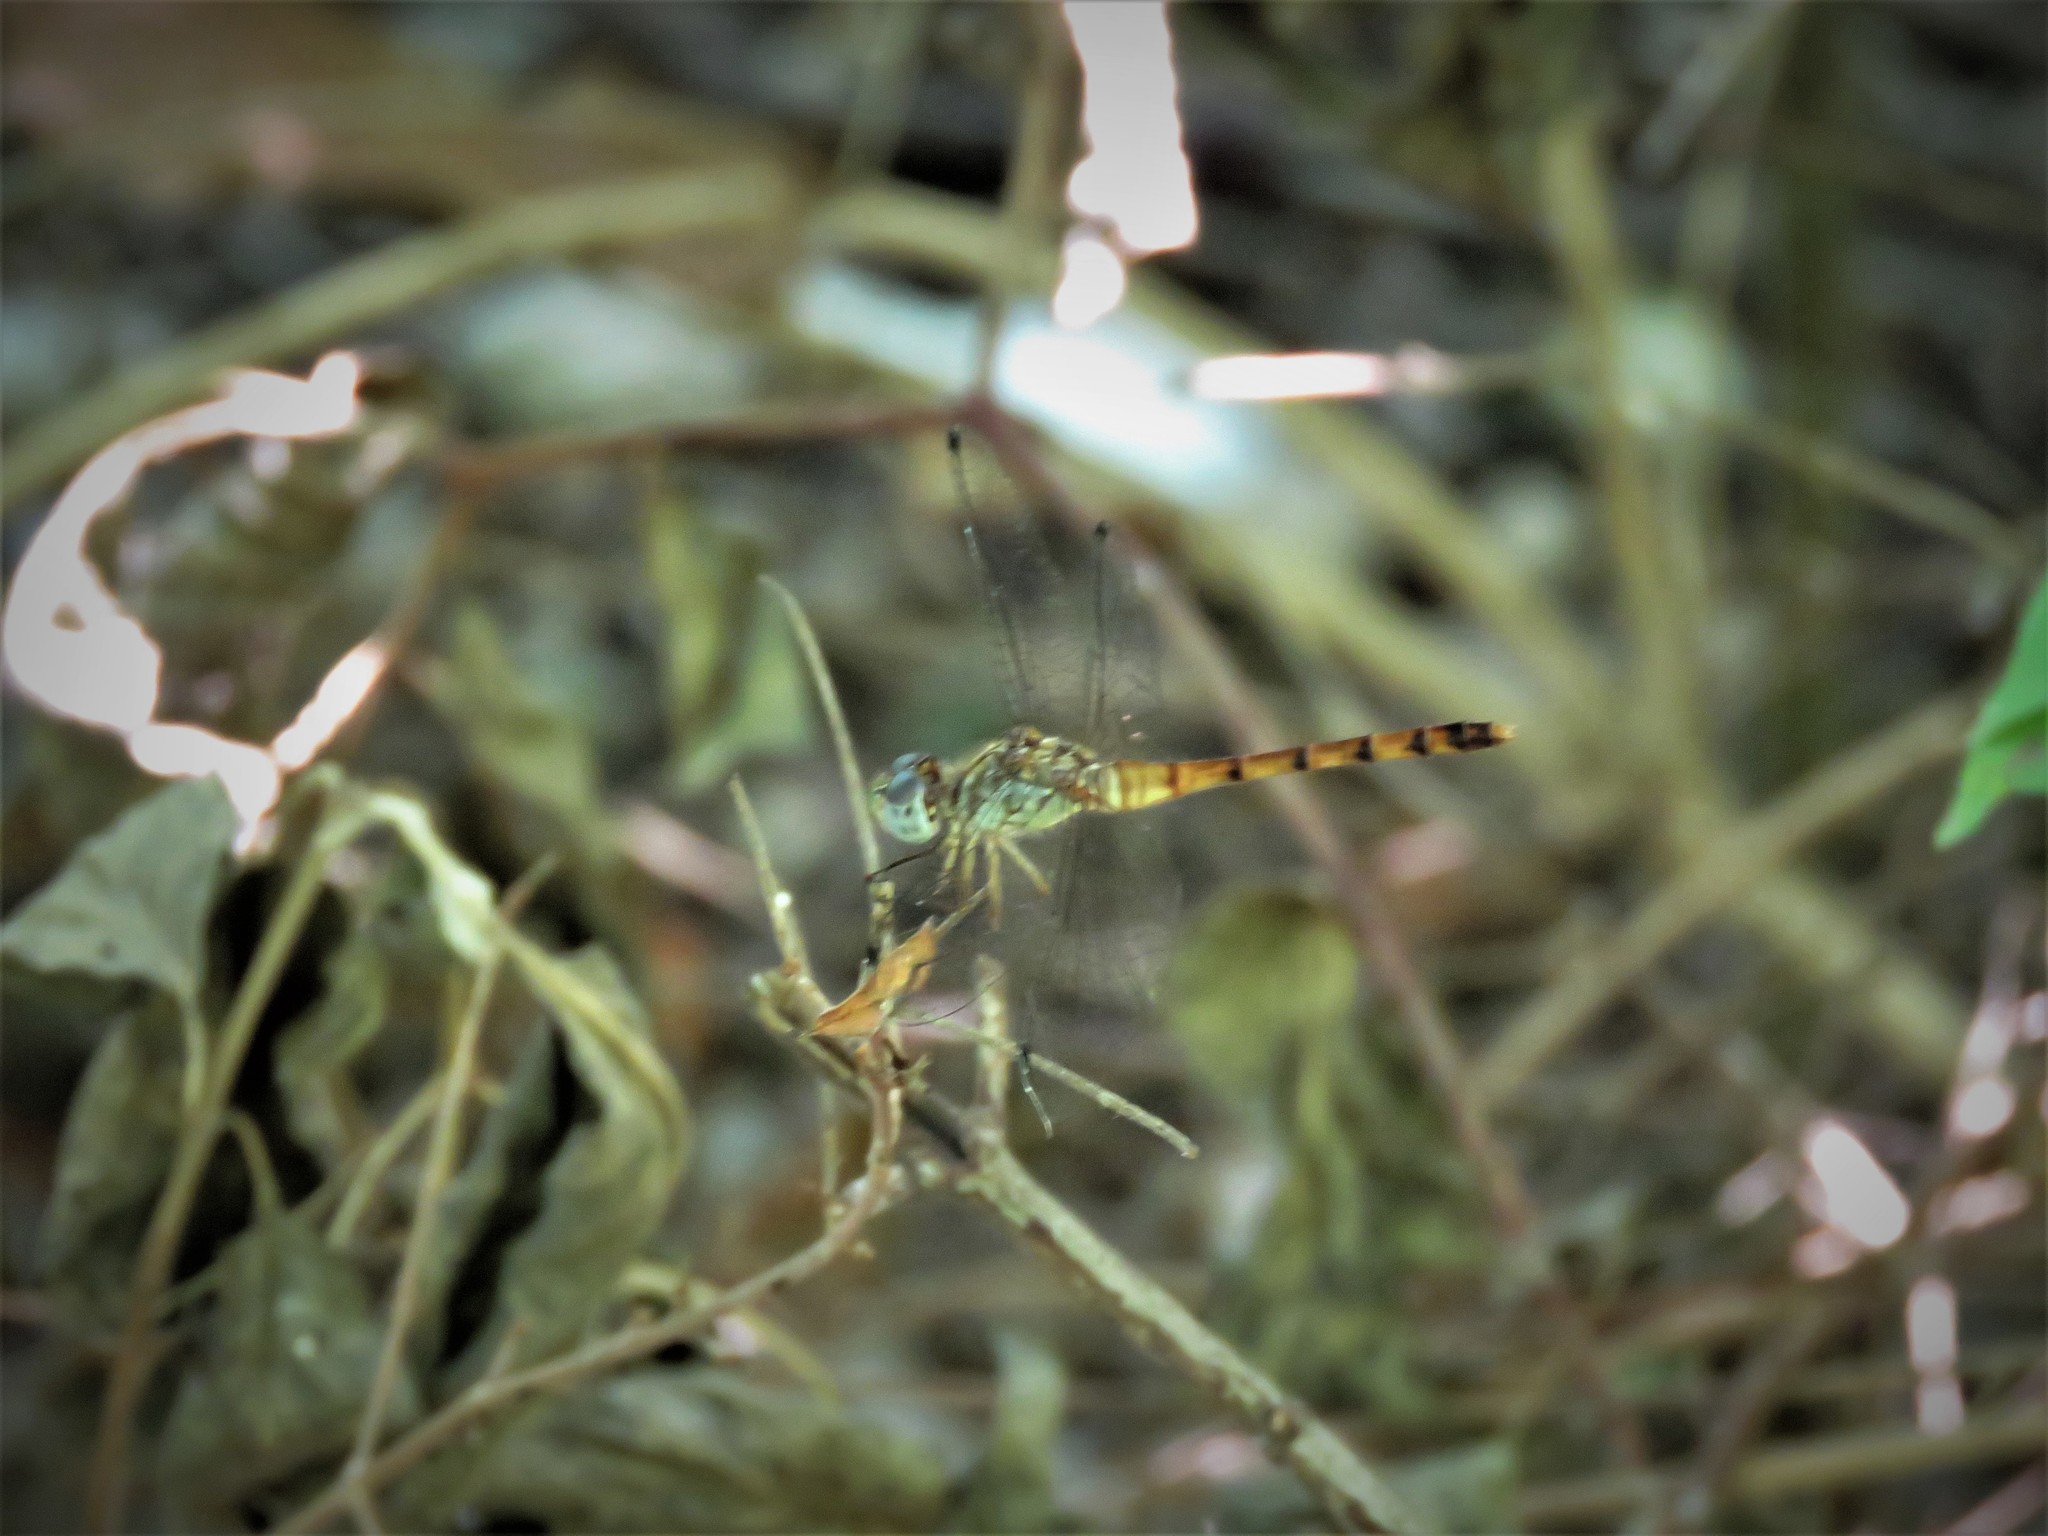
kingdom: Animalia
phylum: Arthropoda
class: Insecta
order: Odonata
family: Libellulidae
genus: Sympetrum
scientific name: Sympetrum ambiguum
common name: Blue-faced meadowhawk
